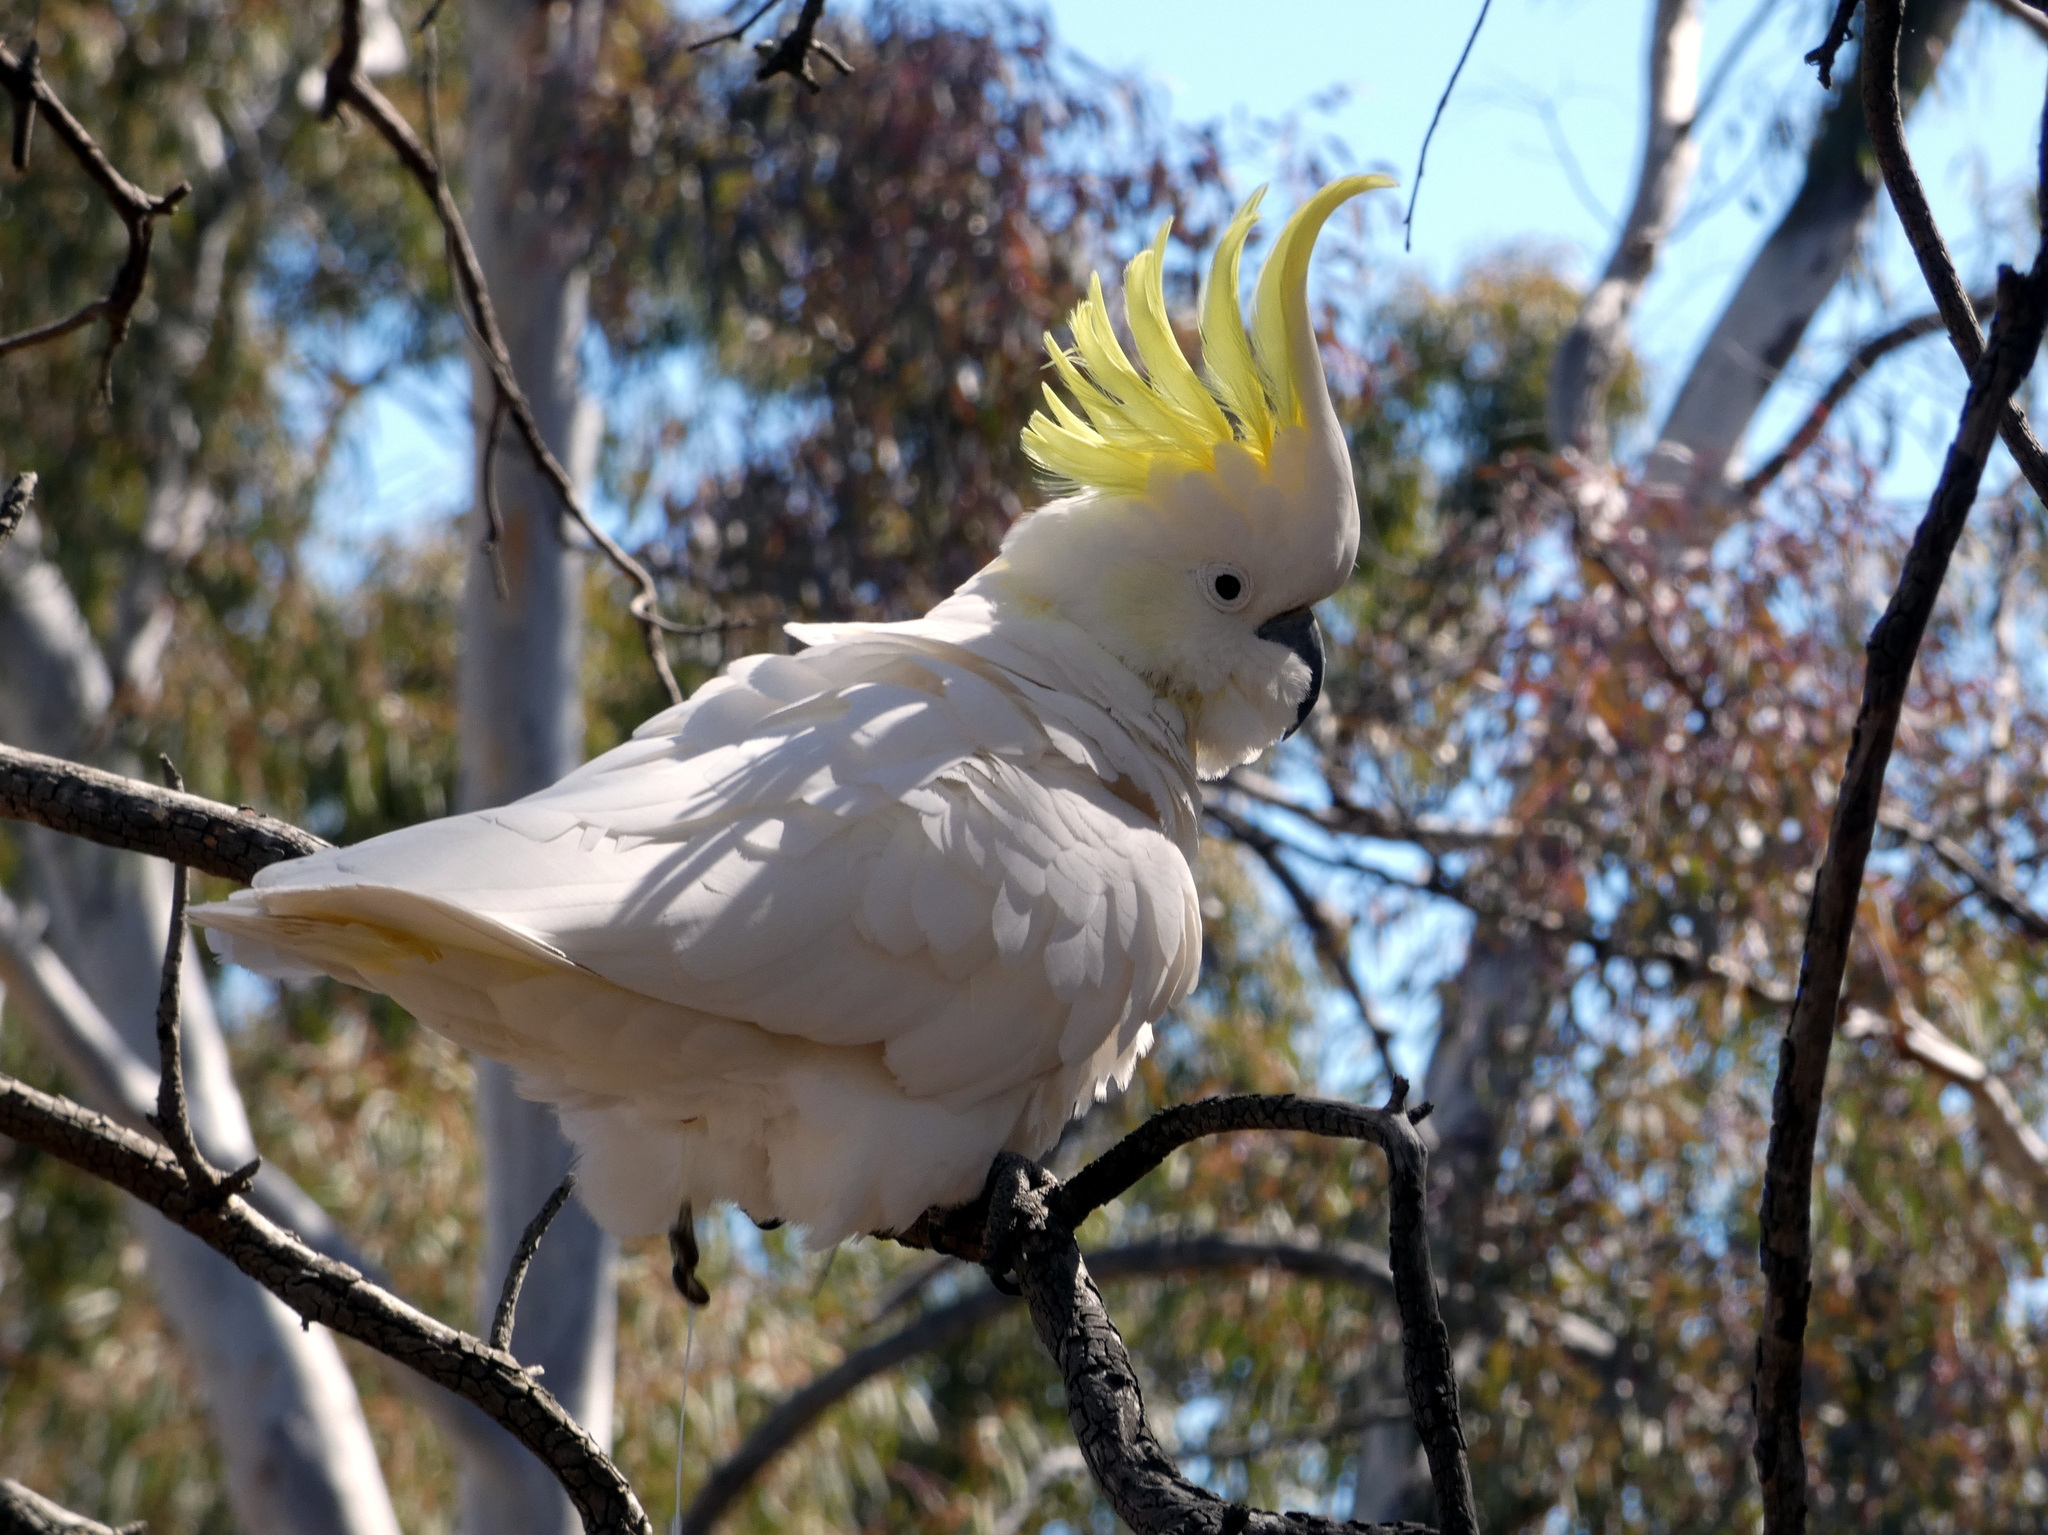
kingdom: Animalia
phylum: Chordata
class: Aves
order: Psittaciformes
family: Psittacidae
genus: Cacatua
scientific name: Cacatua galerita
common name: Sulphur-crested cockatoo
